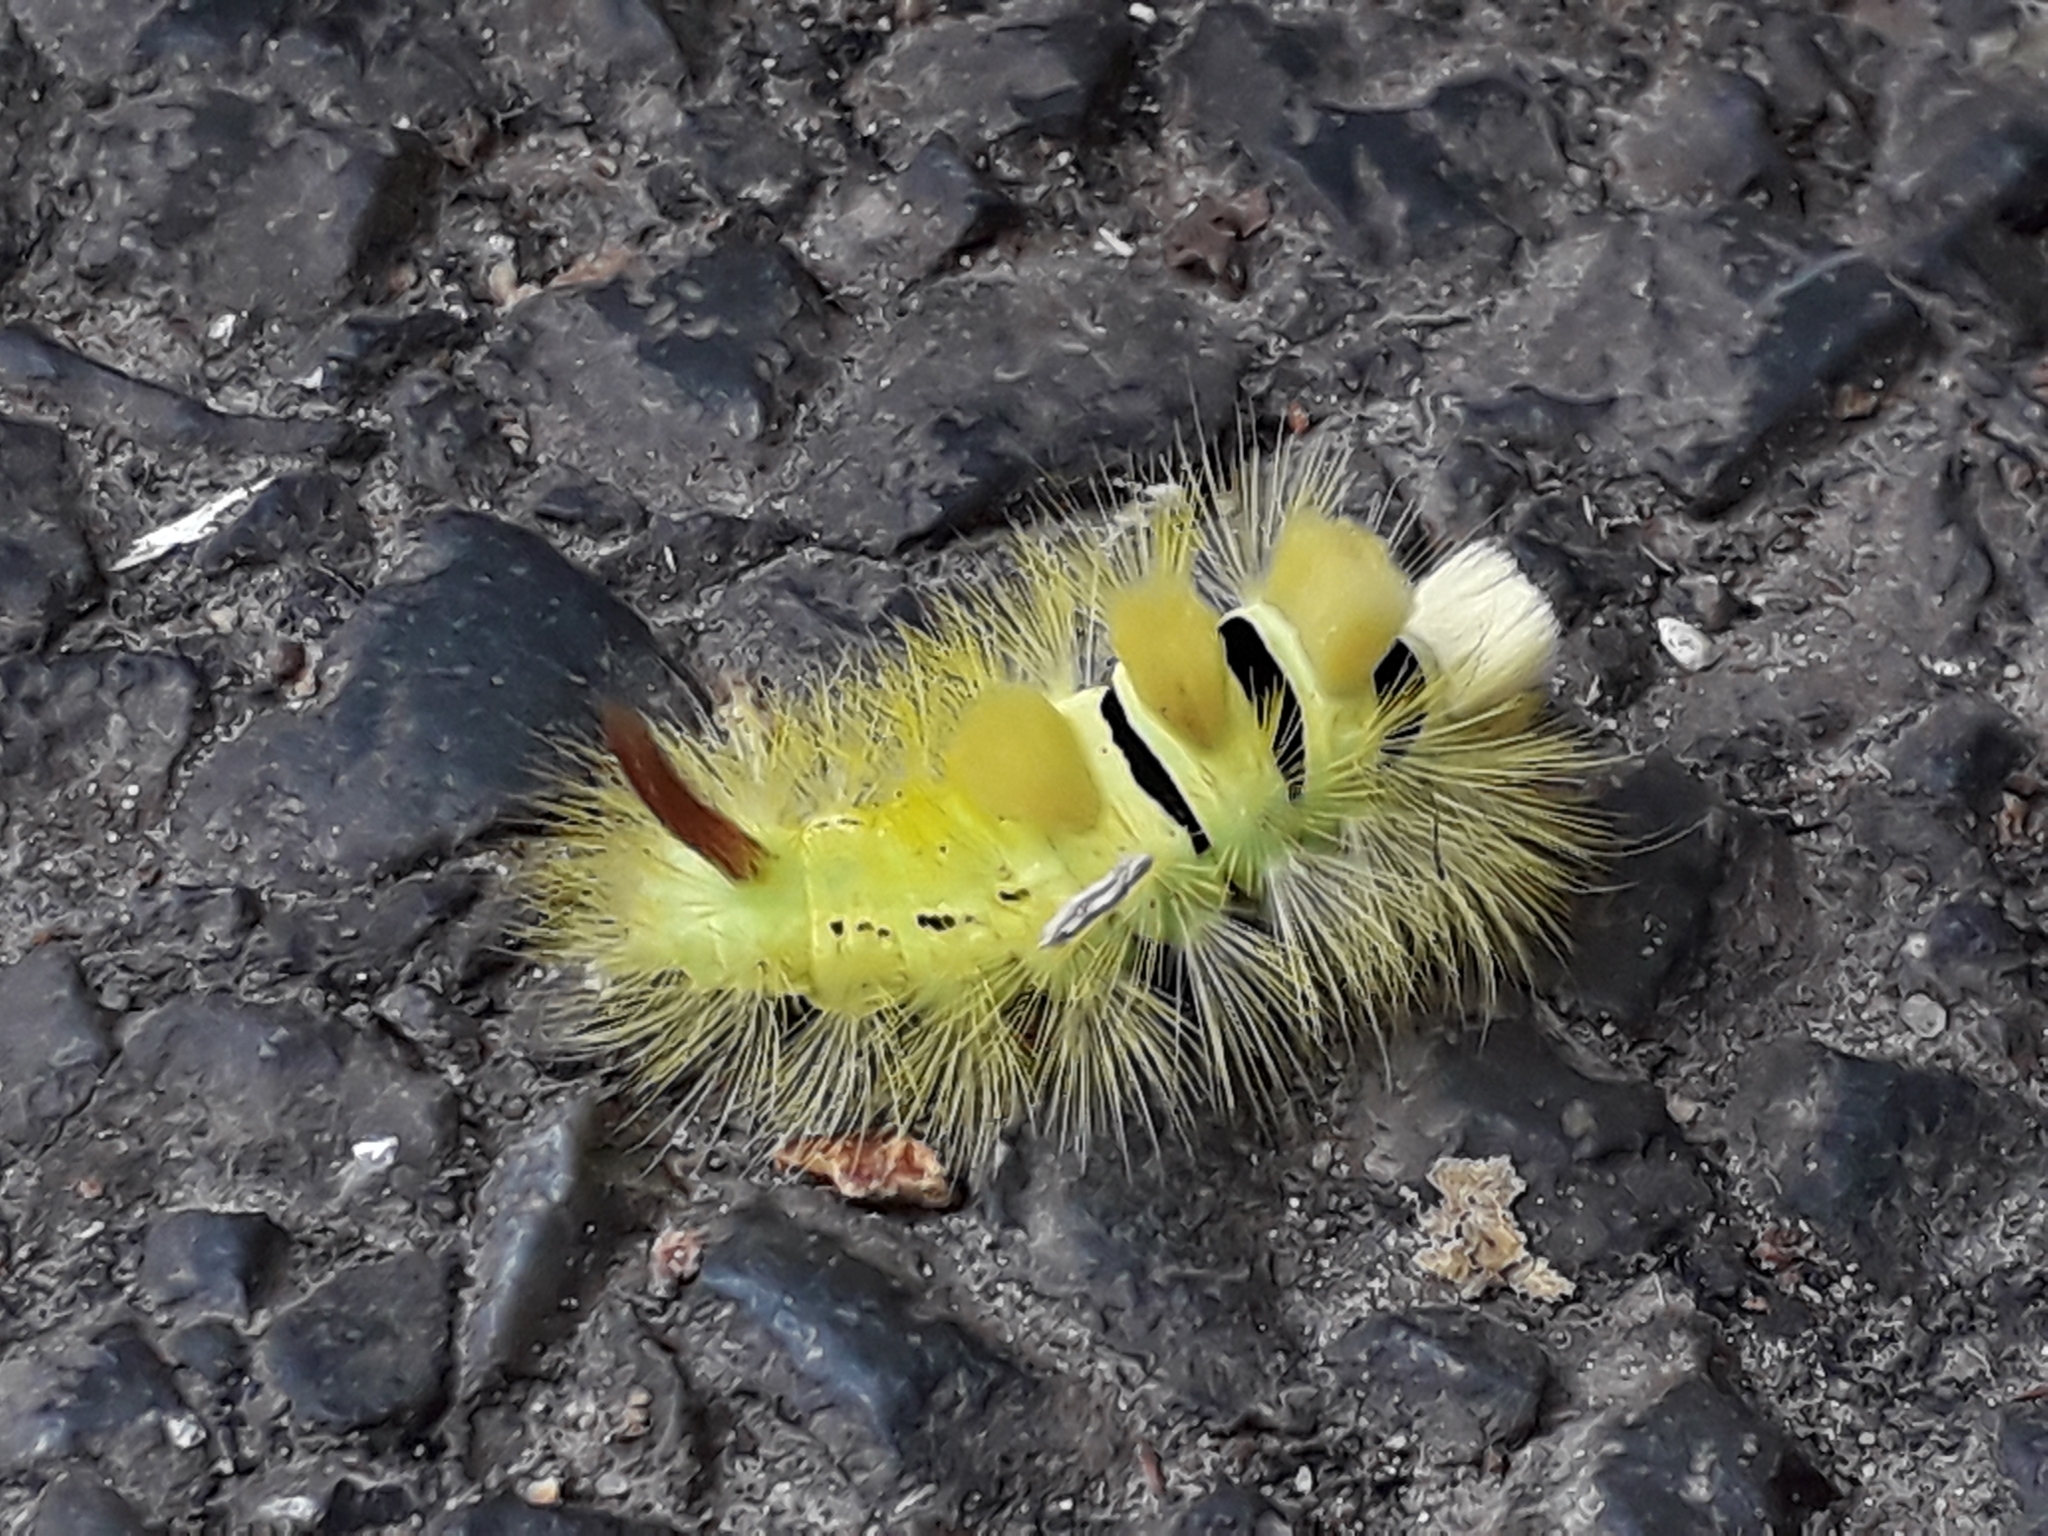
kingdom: Animalia
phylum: Arthropoda
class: Insecta
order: Lepidoptera
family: Erebidae
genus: Calliteara
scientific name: Calliteara pudibunda
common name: Pale tussock
